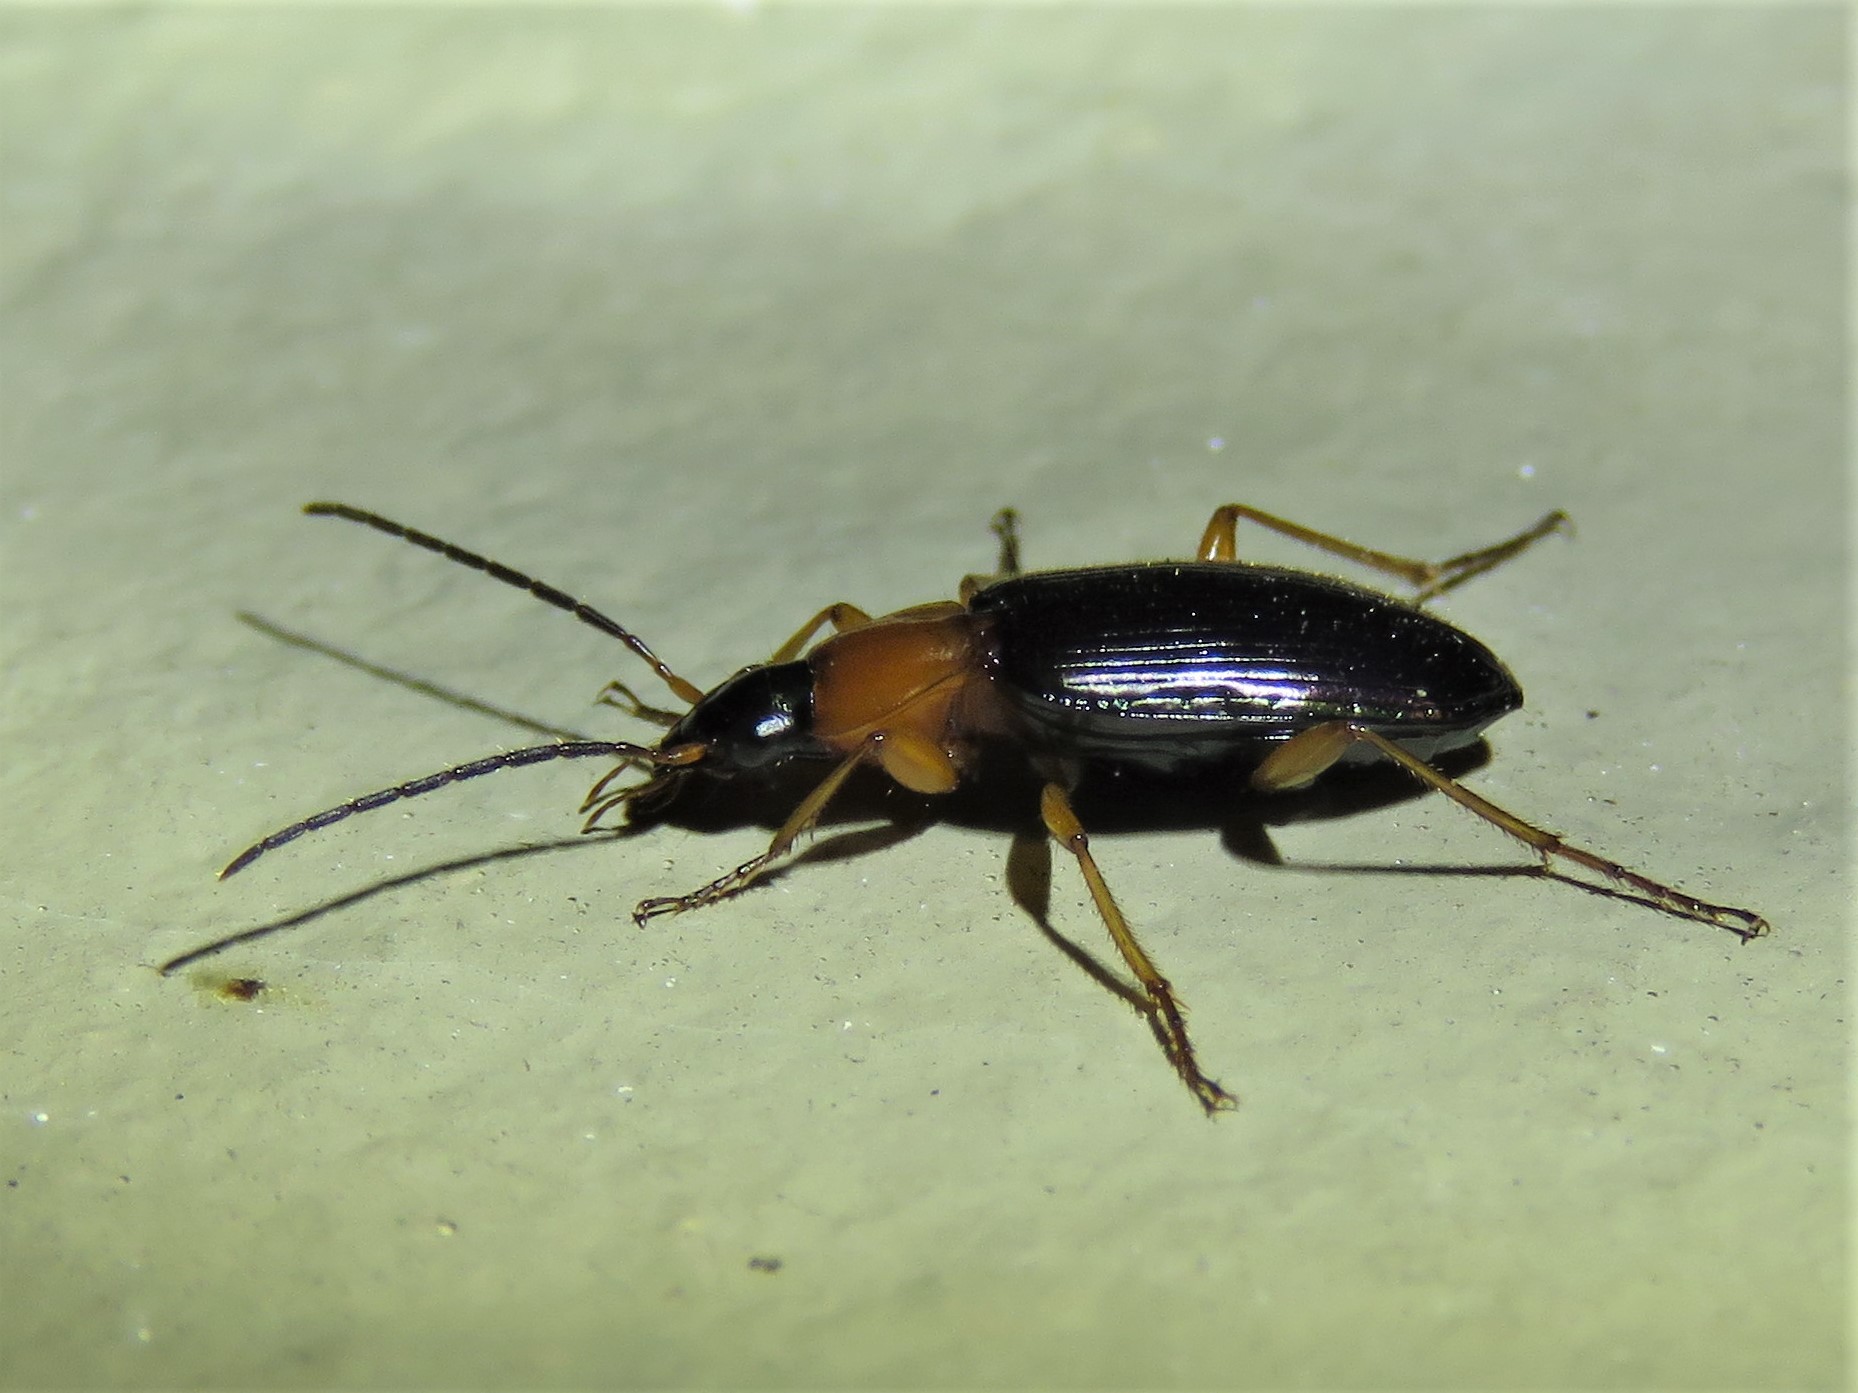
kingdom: Animalia
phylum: Arthropoda
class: Insecta
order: Coleoptera
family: Carabidae
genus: Agonum
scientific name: Agonum decorum
